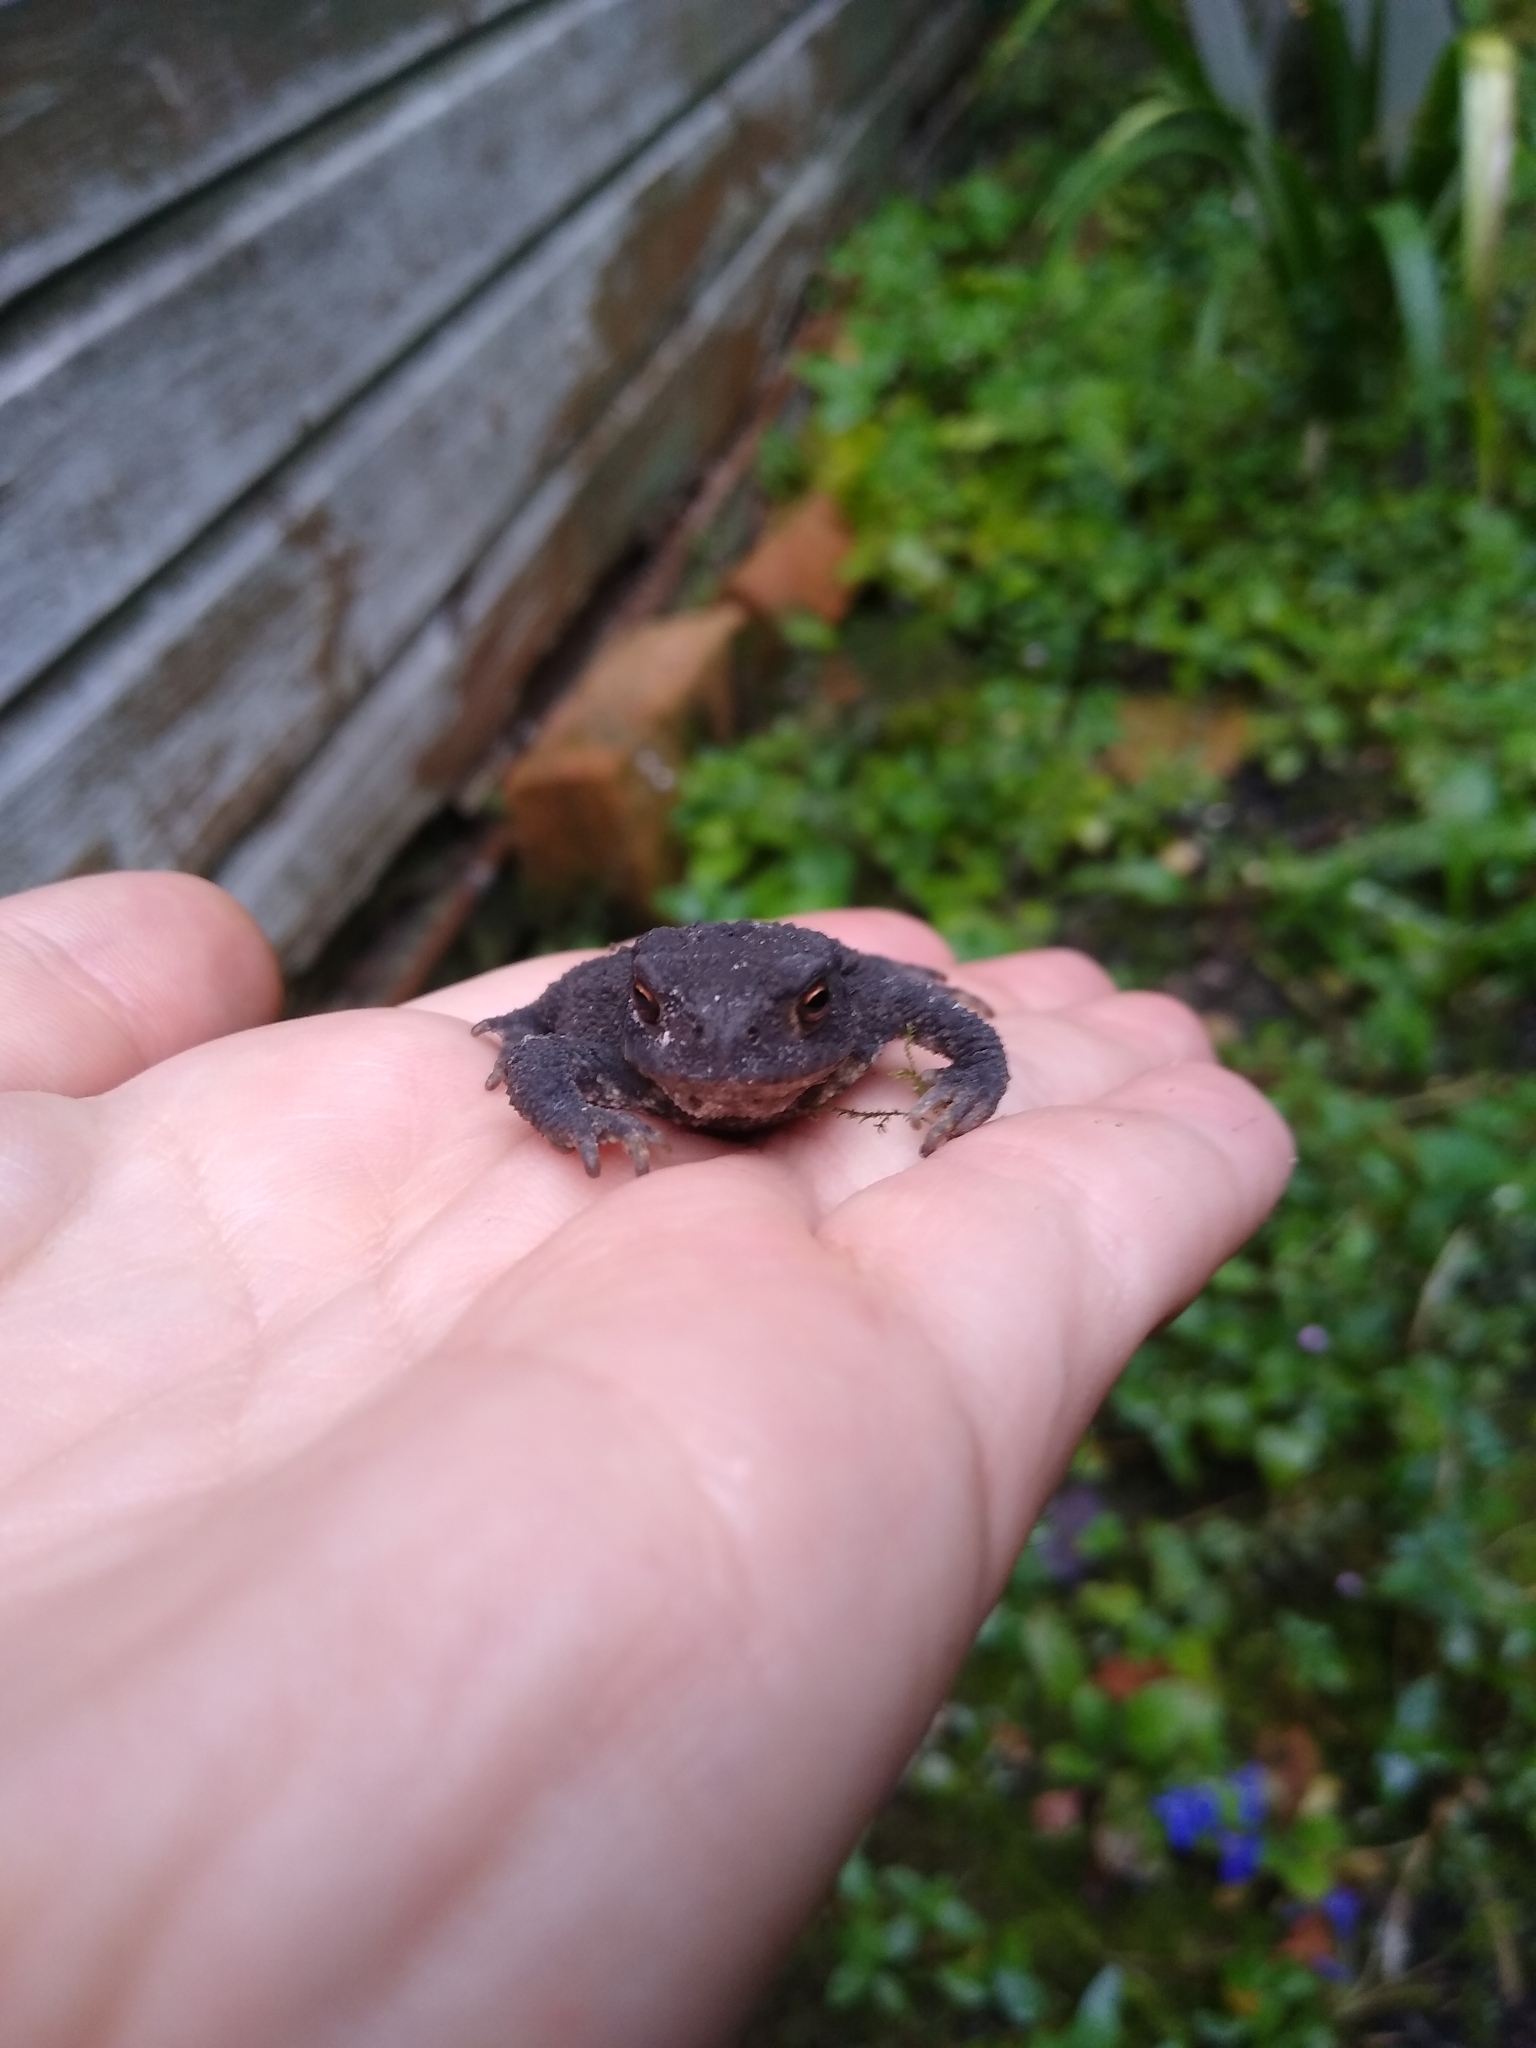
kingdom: Animalia
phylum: Chordata
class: Amphibia
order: Anura
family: Bufonidae
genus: Bufo
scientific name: Bufo bufo
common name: Common toad
